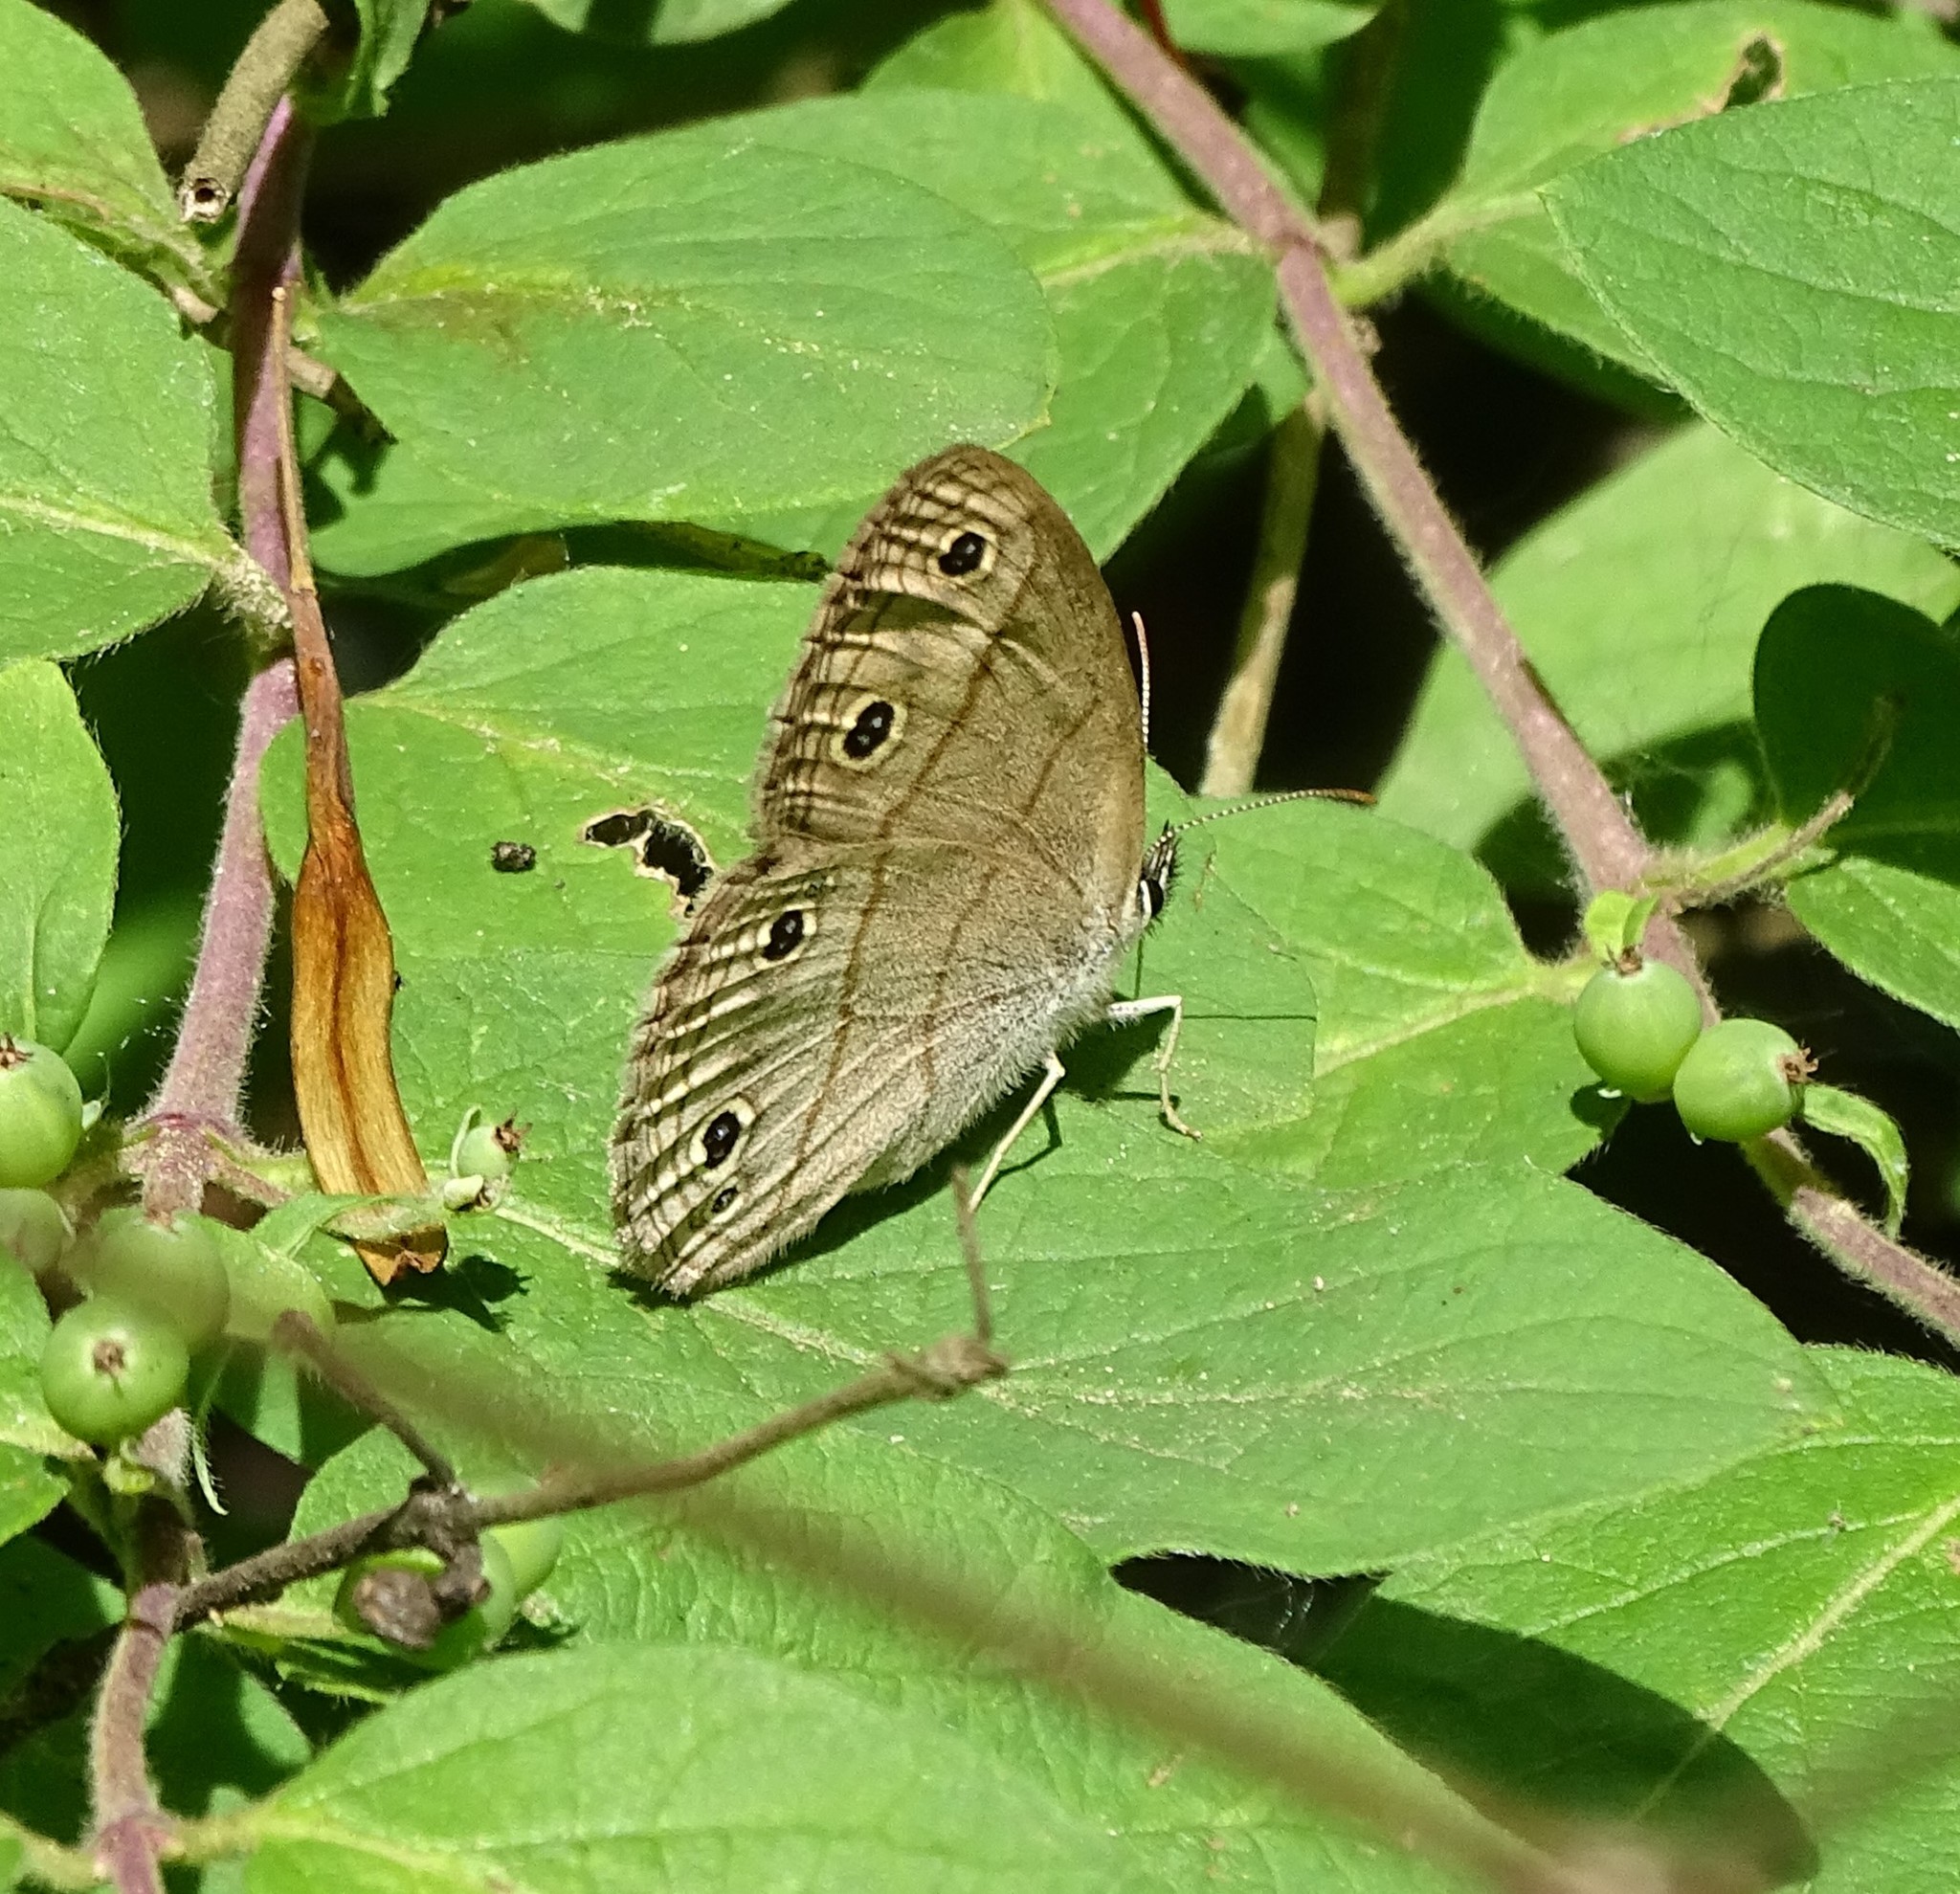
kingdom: Animalia
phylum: Arthropoda
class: Insecta
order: Lepidoptera
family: Nymphalidae
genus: Euptychia
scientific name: Euptychia cymela
